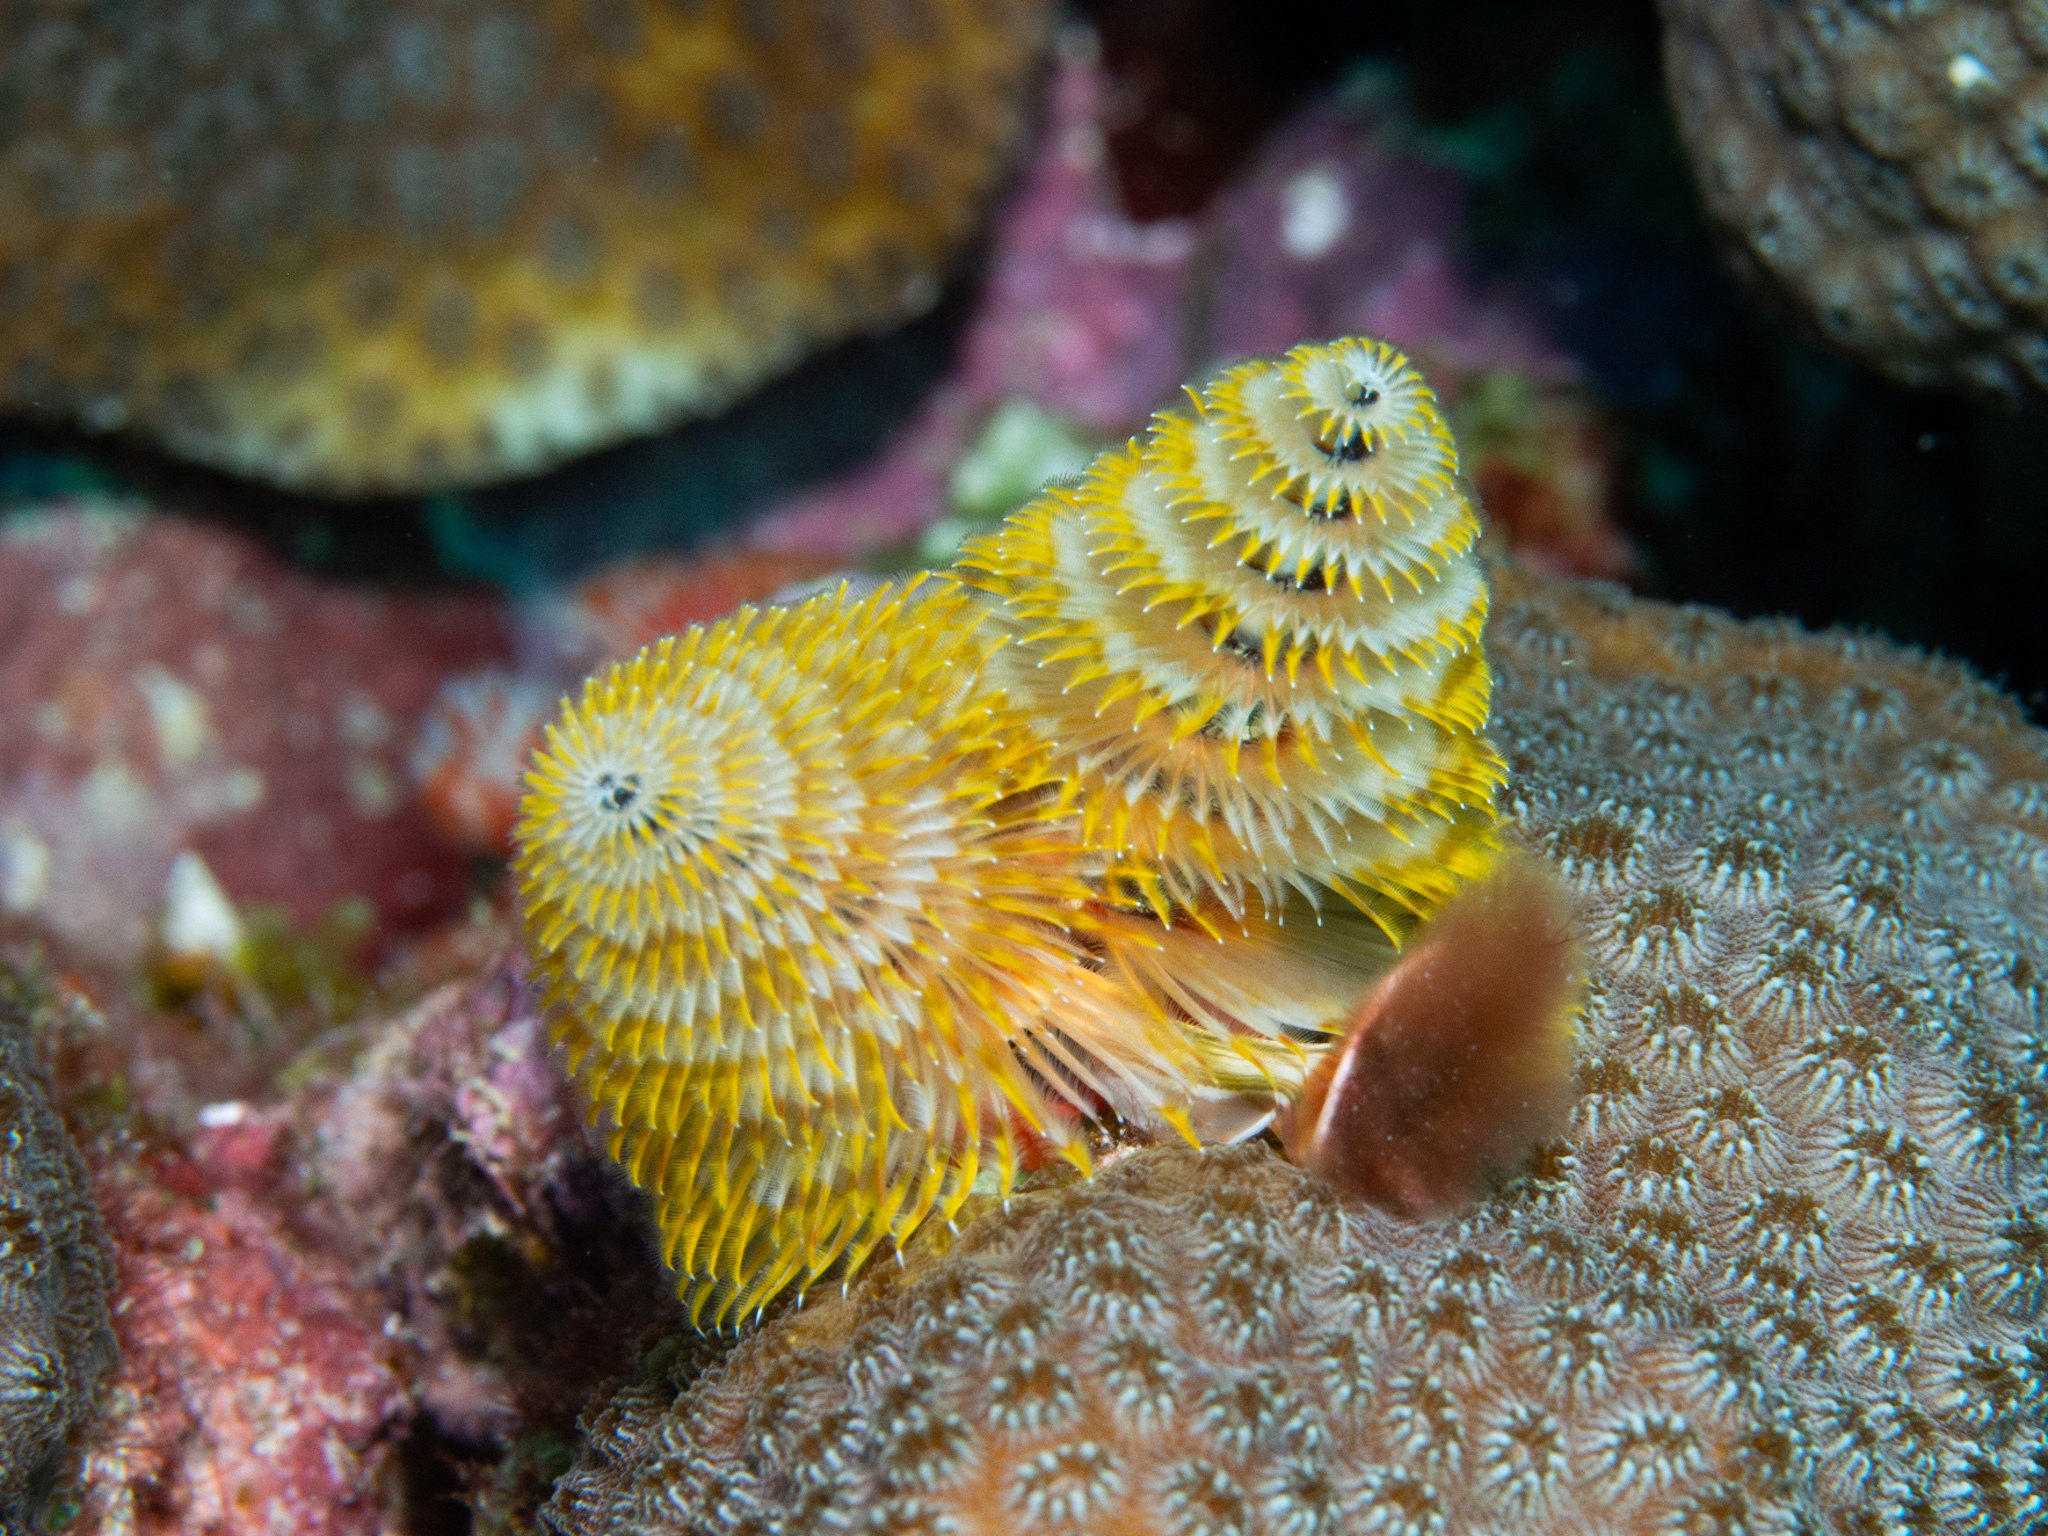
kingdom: Animalia
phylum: Annelida
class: Polychaeta
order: Sabellida
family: Serpulidae
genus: Spirobranchus
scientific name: Spirobranchus giganteus
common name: Christmas tree worm
